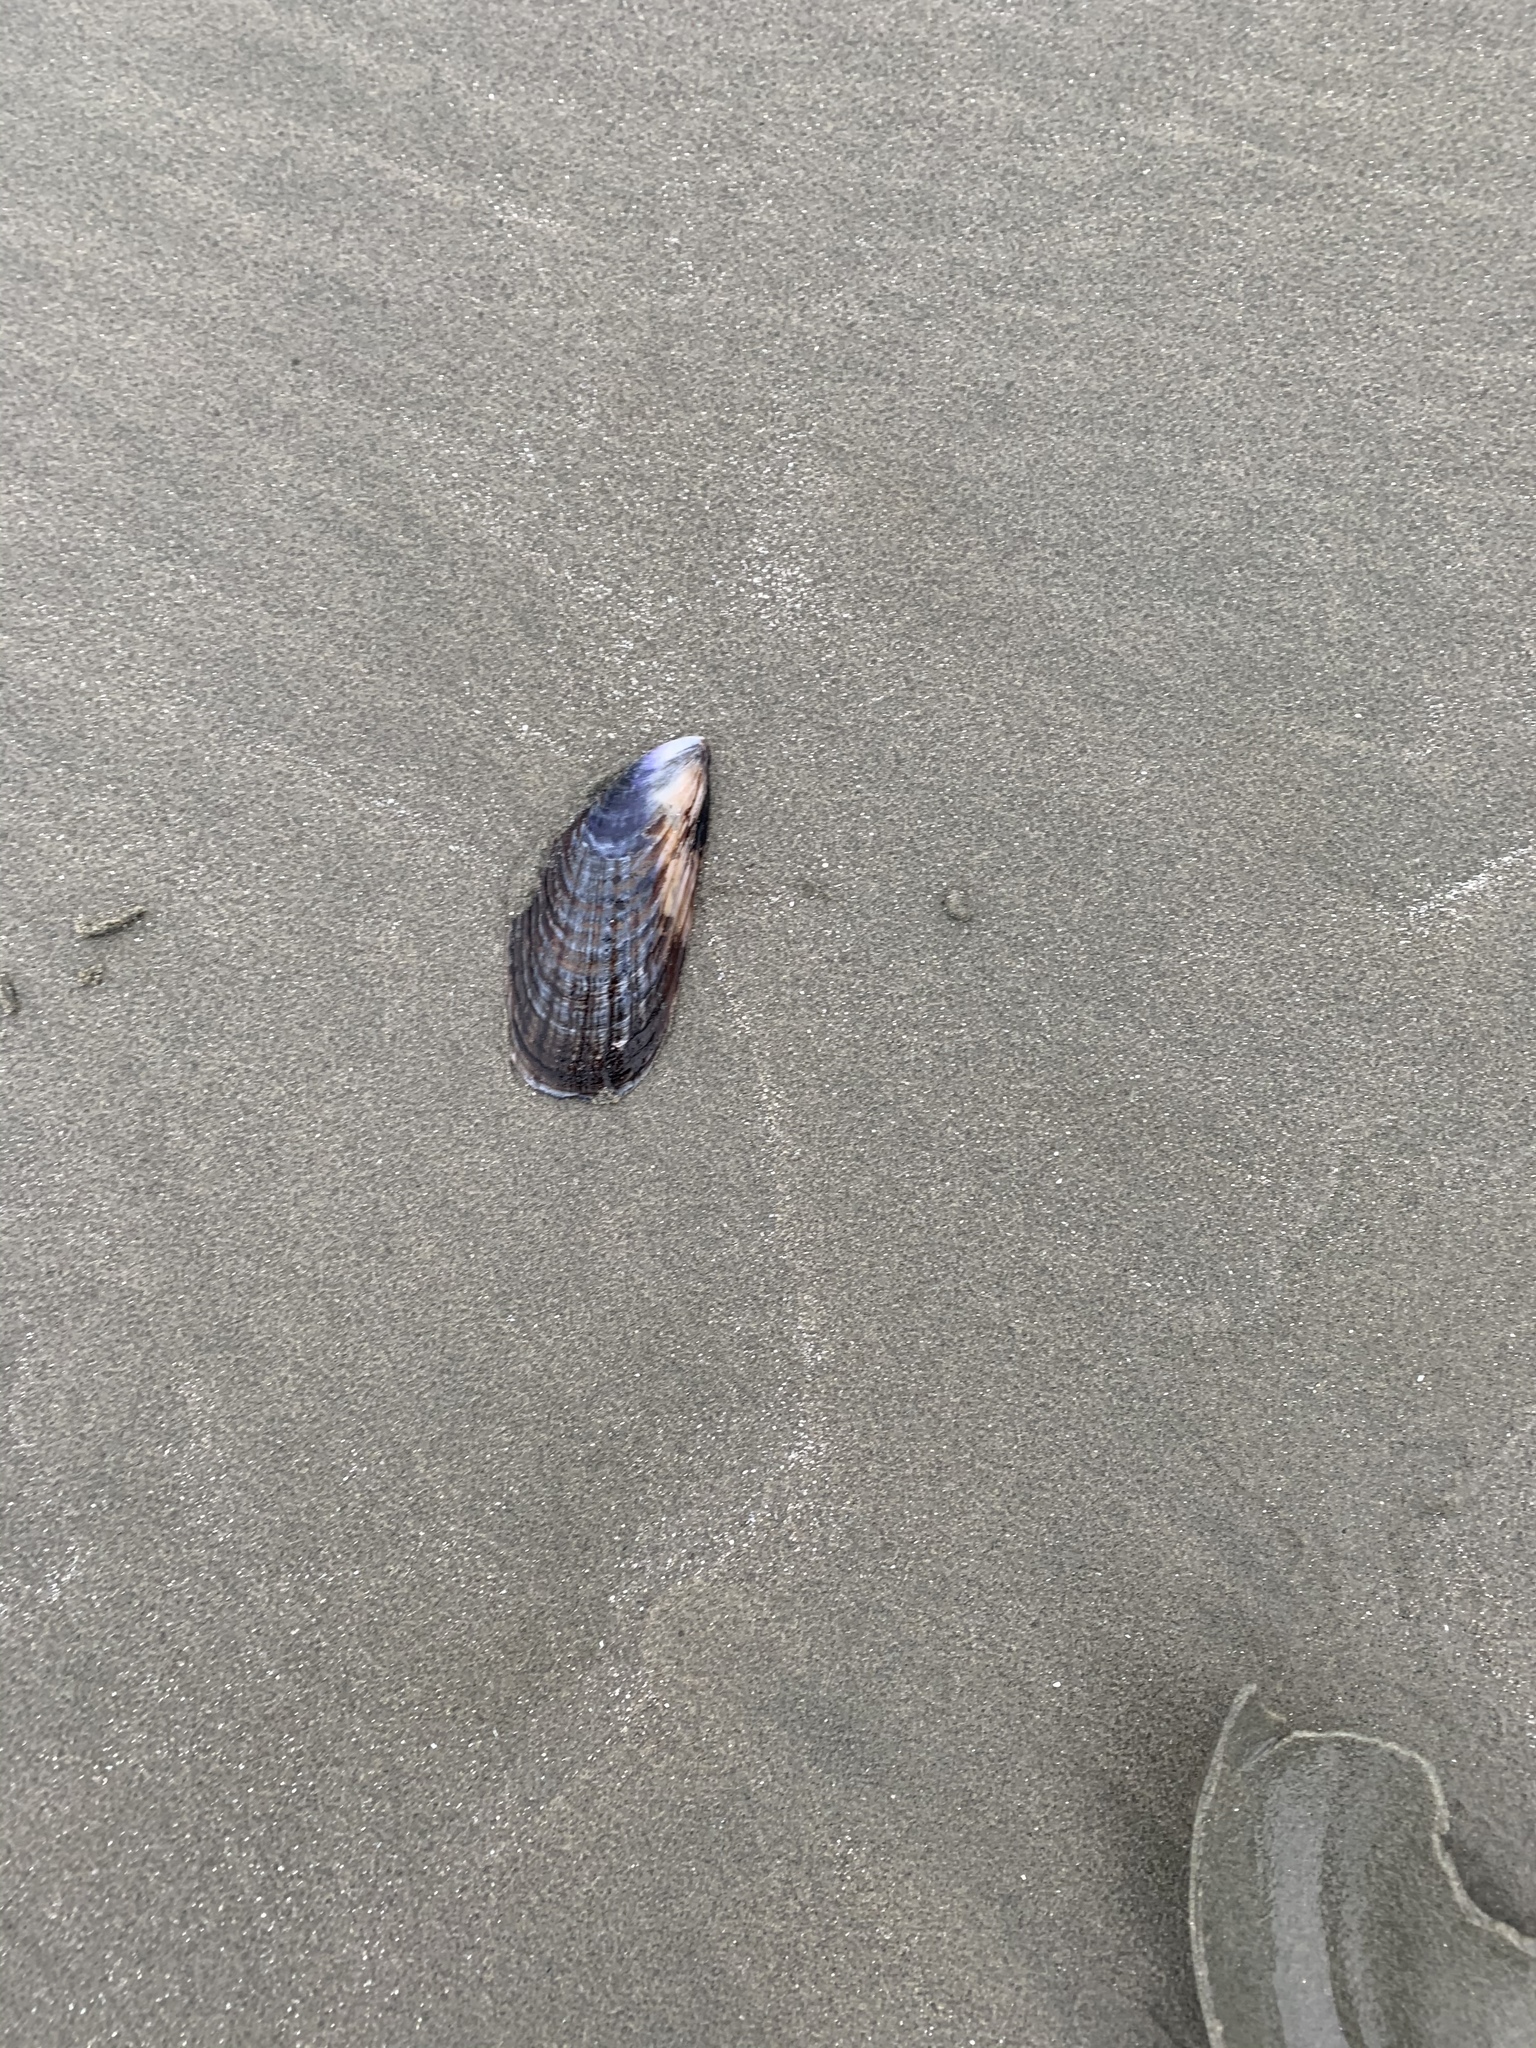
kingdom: Animalia
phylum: Mollusca
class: Bivalvia
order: Mytilida
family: Mytilidae
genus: Mytilus
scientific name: Mytilus californianus
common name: California mussel
